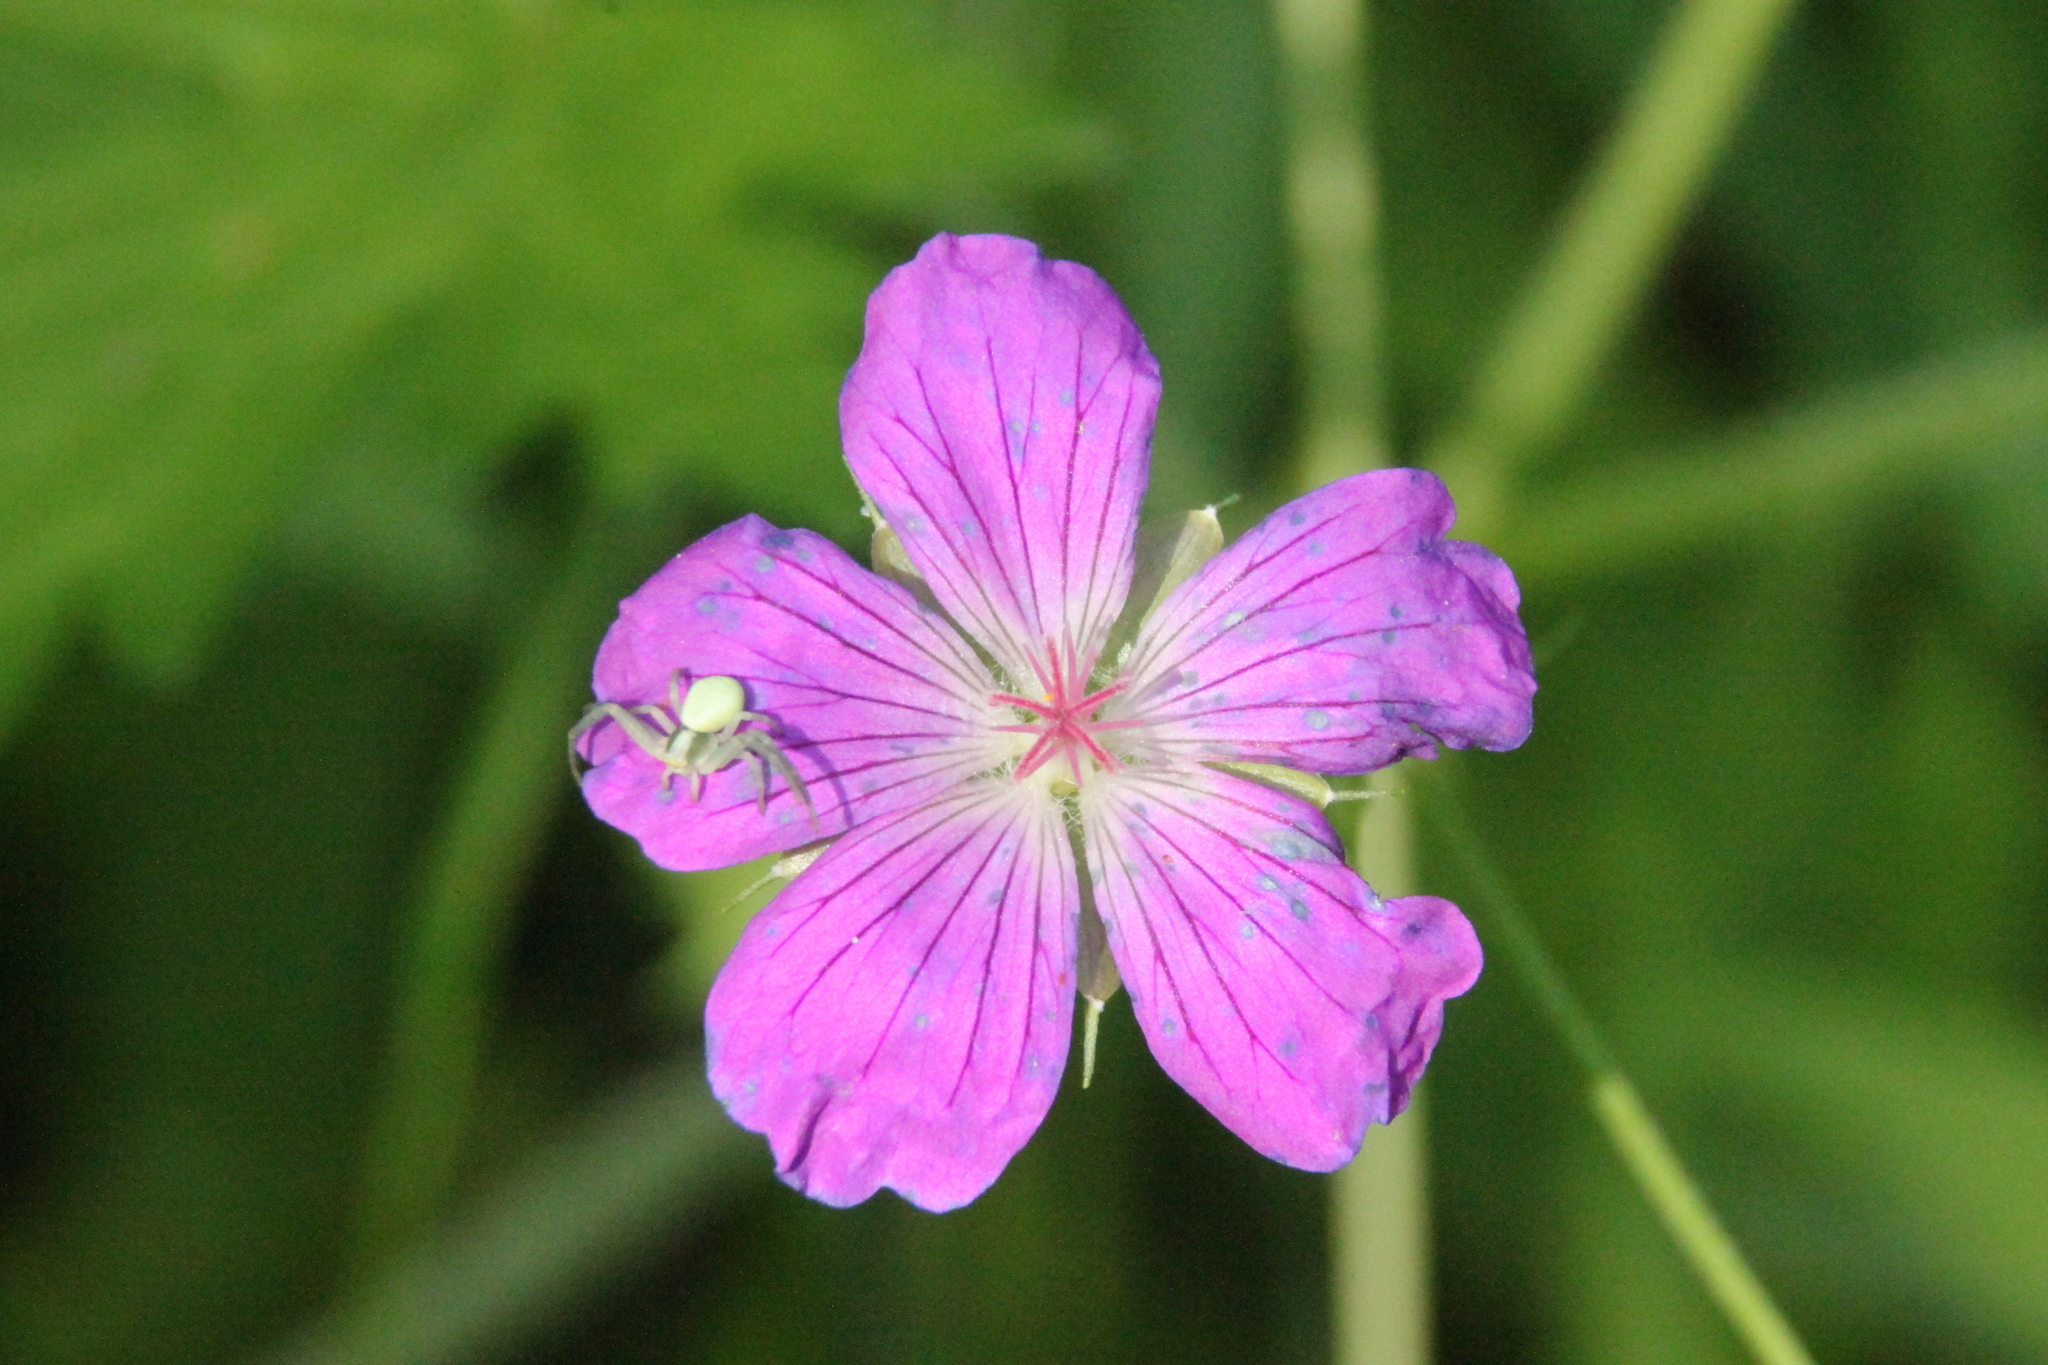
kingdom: Animalia
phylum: Arthropoda
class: Arachnida
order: Araneae
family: Thomisidae
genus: Misumena
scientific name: Misumena vatia
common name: Goldenrod crab spider
